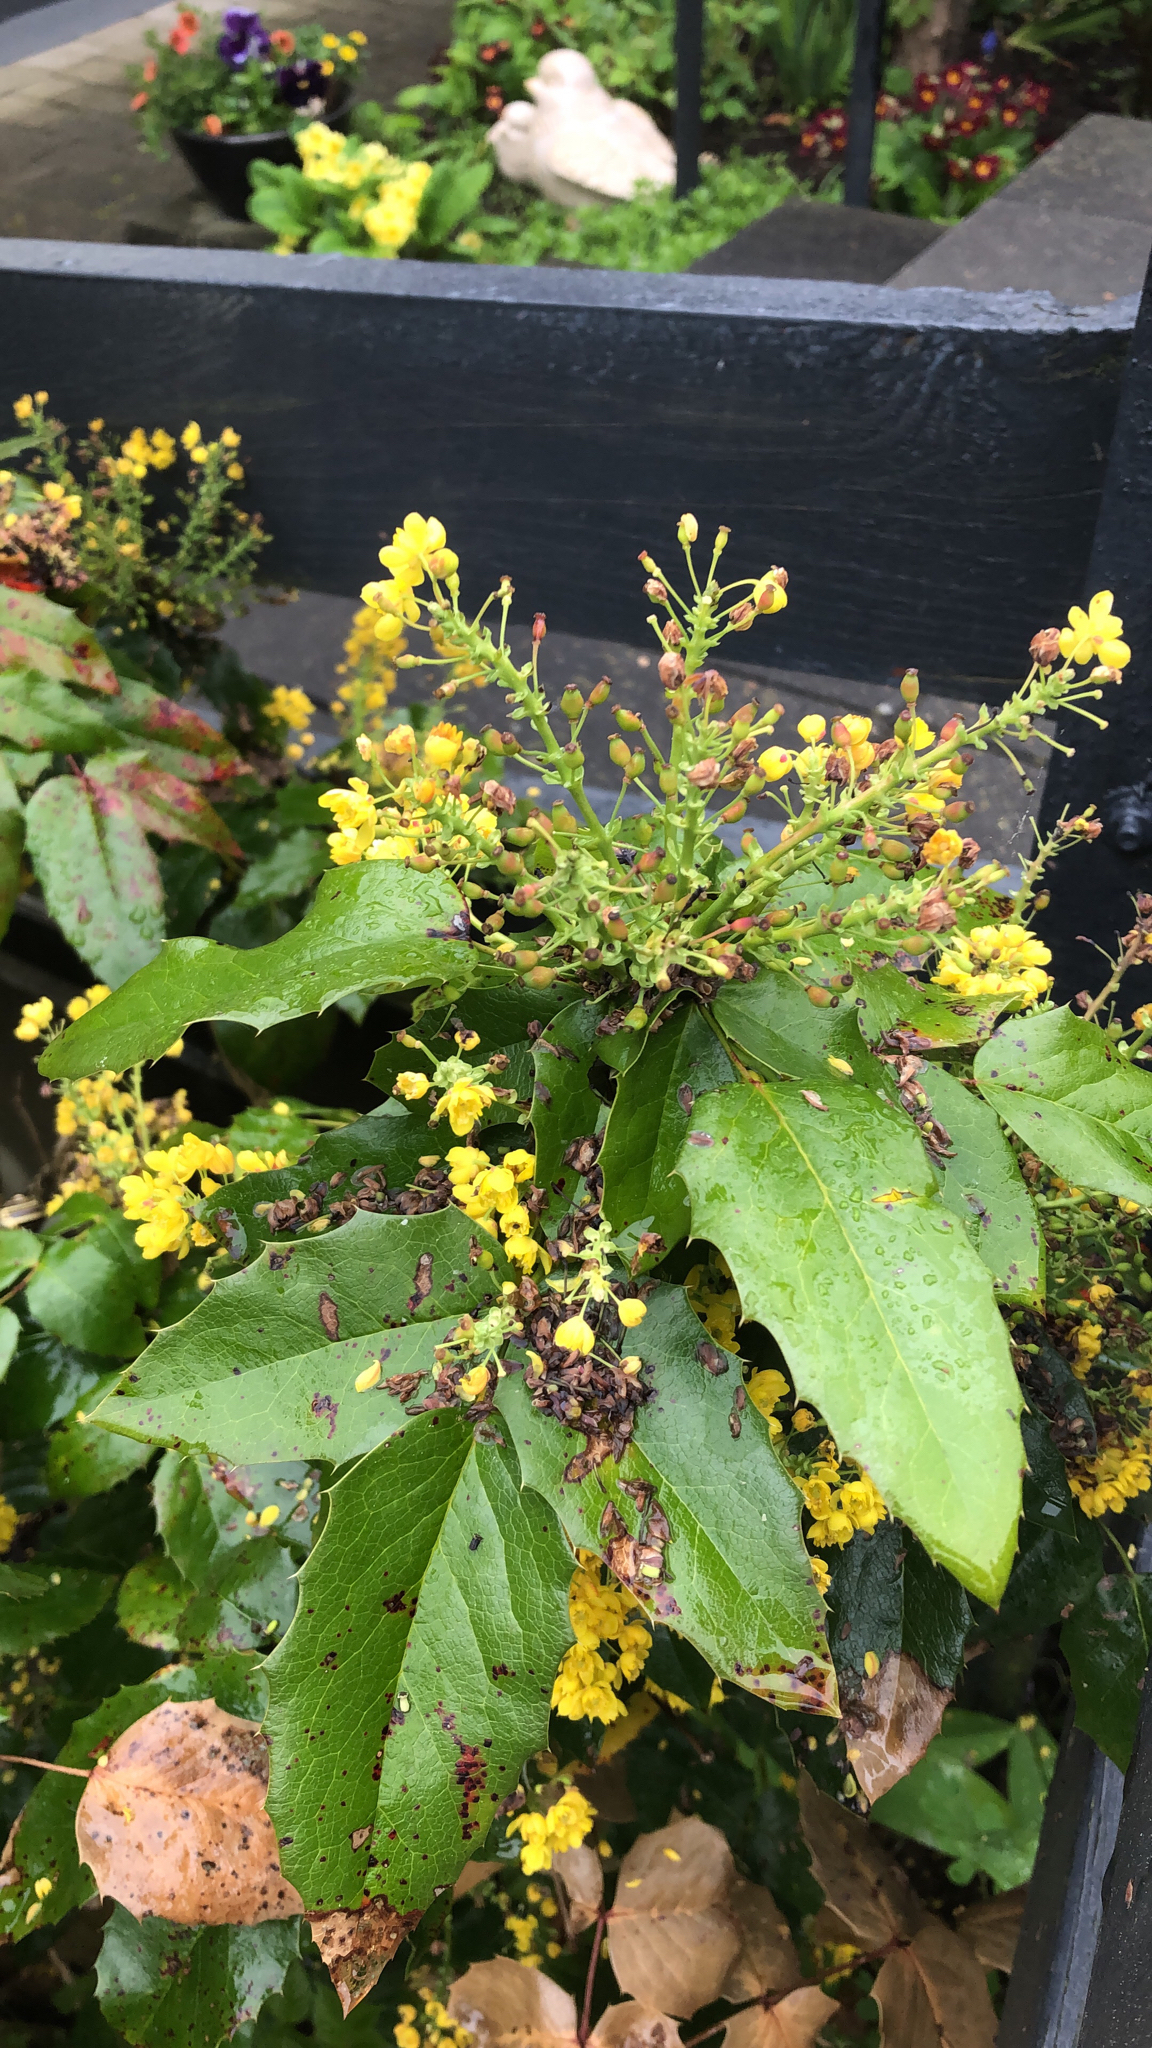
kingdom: Plantae
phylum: Tracheophyta
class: Magnoliopsida
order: Ranunculales
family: Berberidaceae
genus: Mahonia
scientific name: Mahonia aquifolium
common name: Oregon-grape
